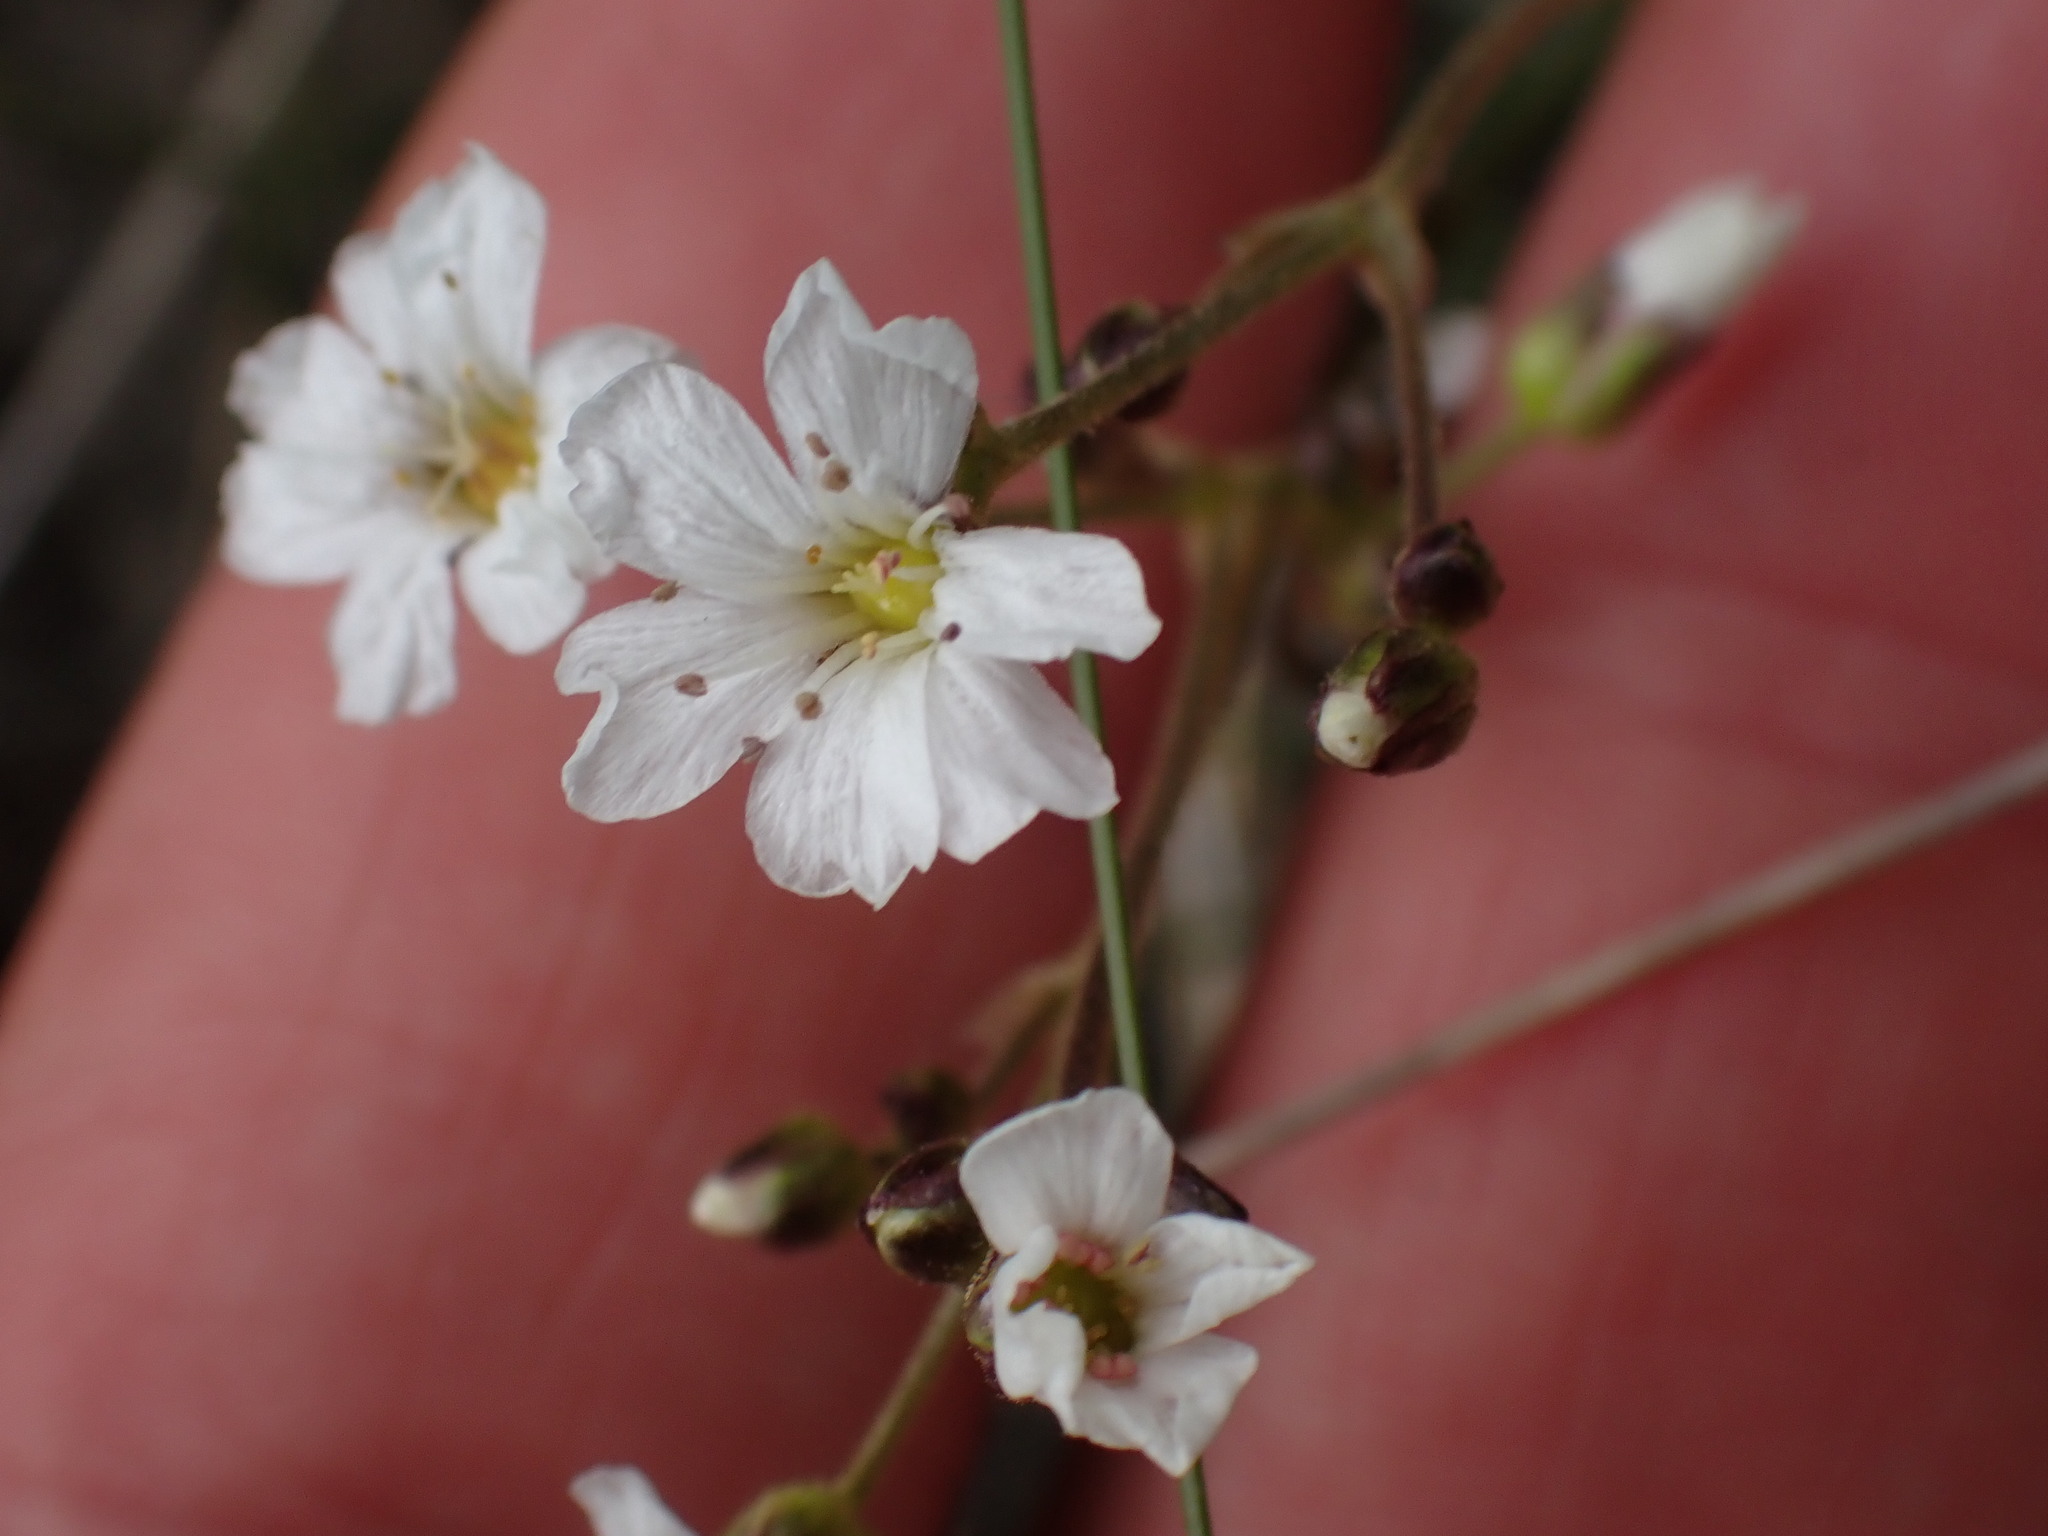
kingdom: Plantae
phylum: Tracheophyta
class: Magnoliopsida
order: Caryophyllales
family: Caryophyllaceae
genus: Eremogone
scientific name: Eremogone capillaris
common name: Slender mountain sandwort
